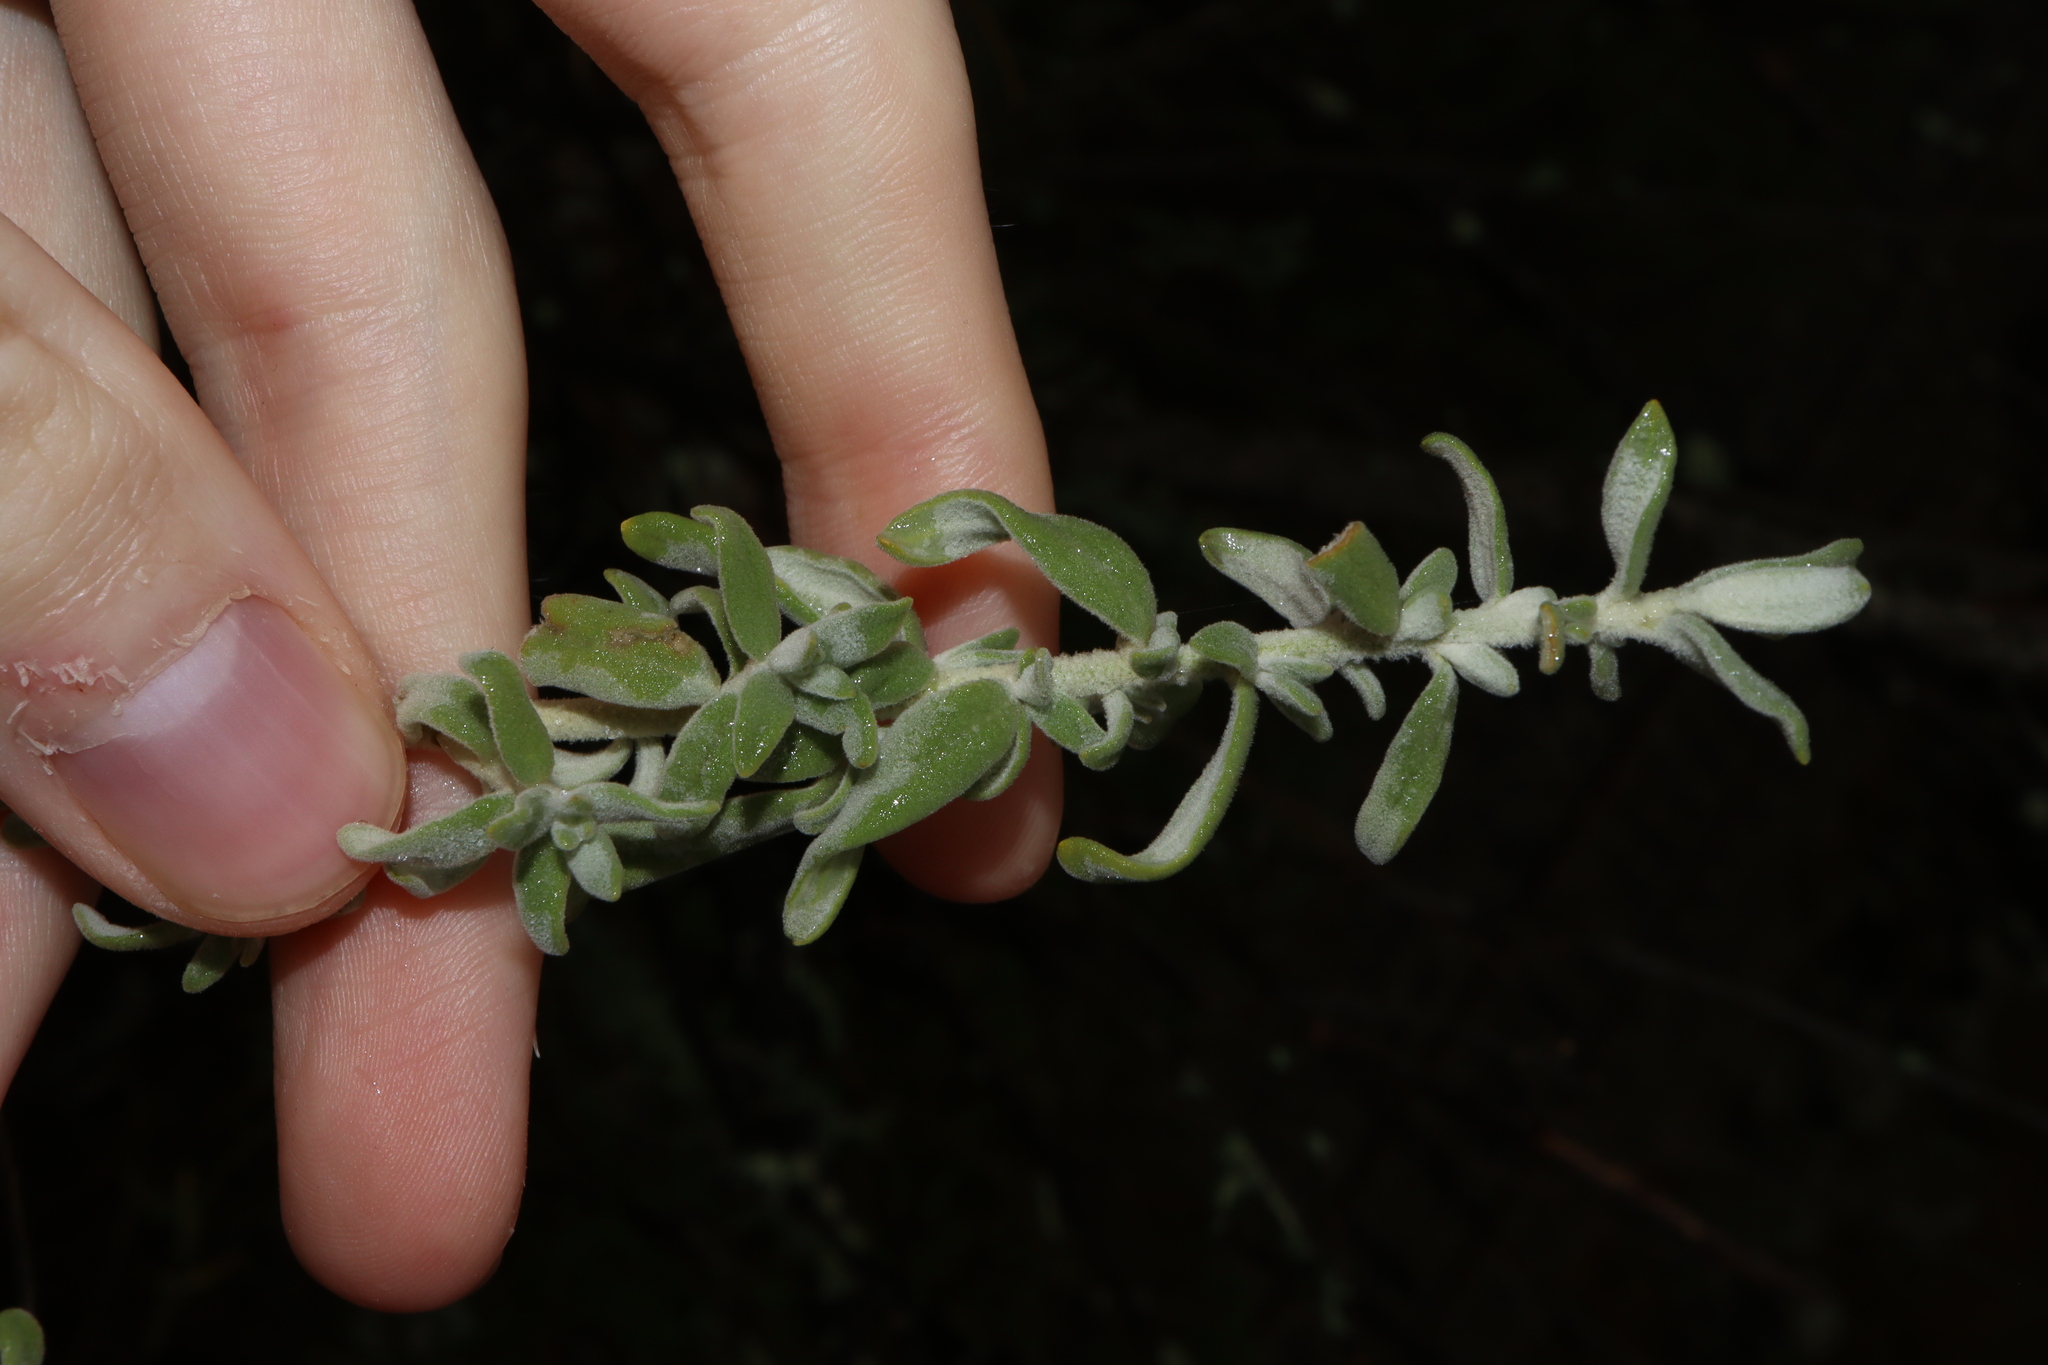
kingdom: Plantae
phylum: Tracheophyta
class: Magnoliopsida
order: Solanales
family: Solanaceae
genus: Cyphanthera
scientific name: Cyphanthera albicans
